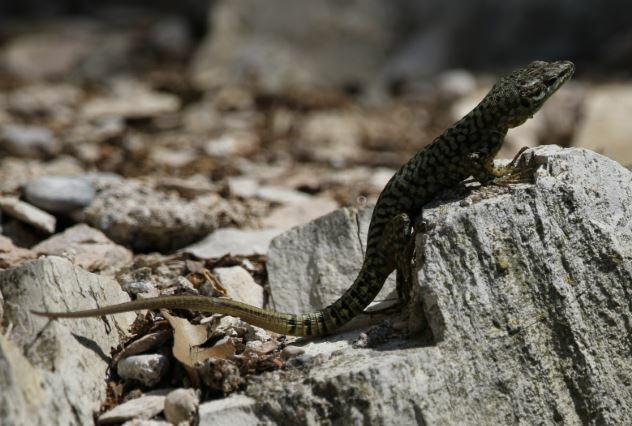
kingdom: Animalia
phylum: Chordata
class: Squamata
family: Lacertidae
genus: Podarcis
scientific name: Podarcis muralis
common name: Common wall lizard
